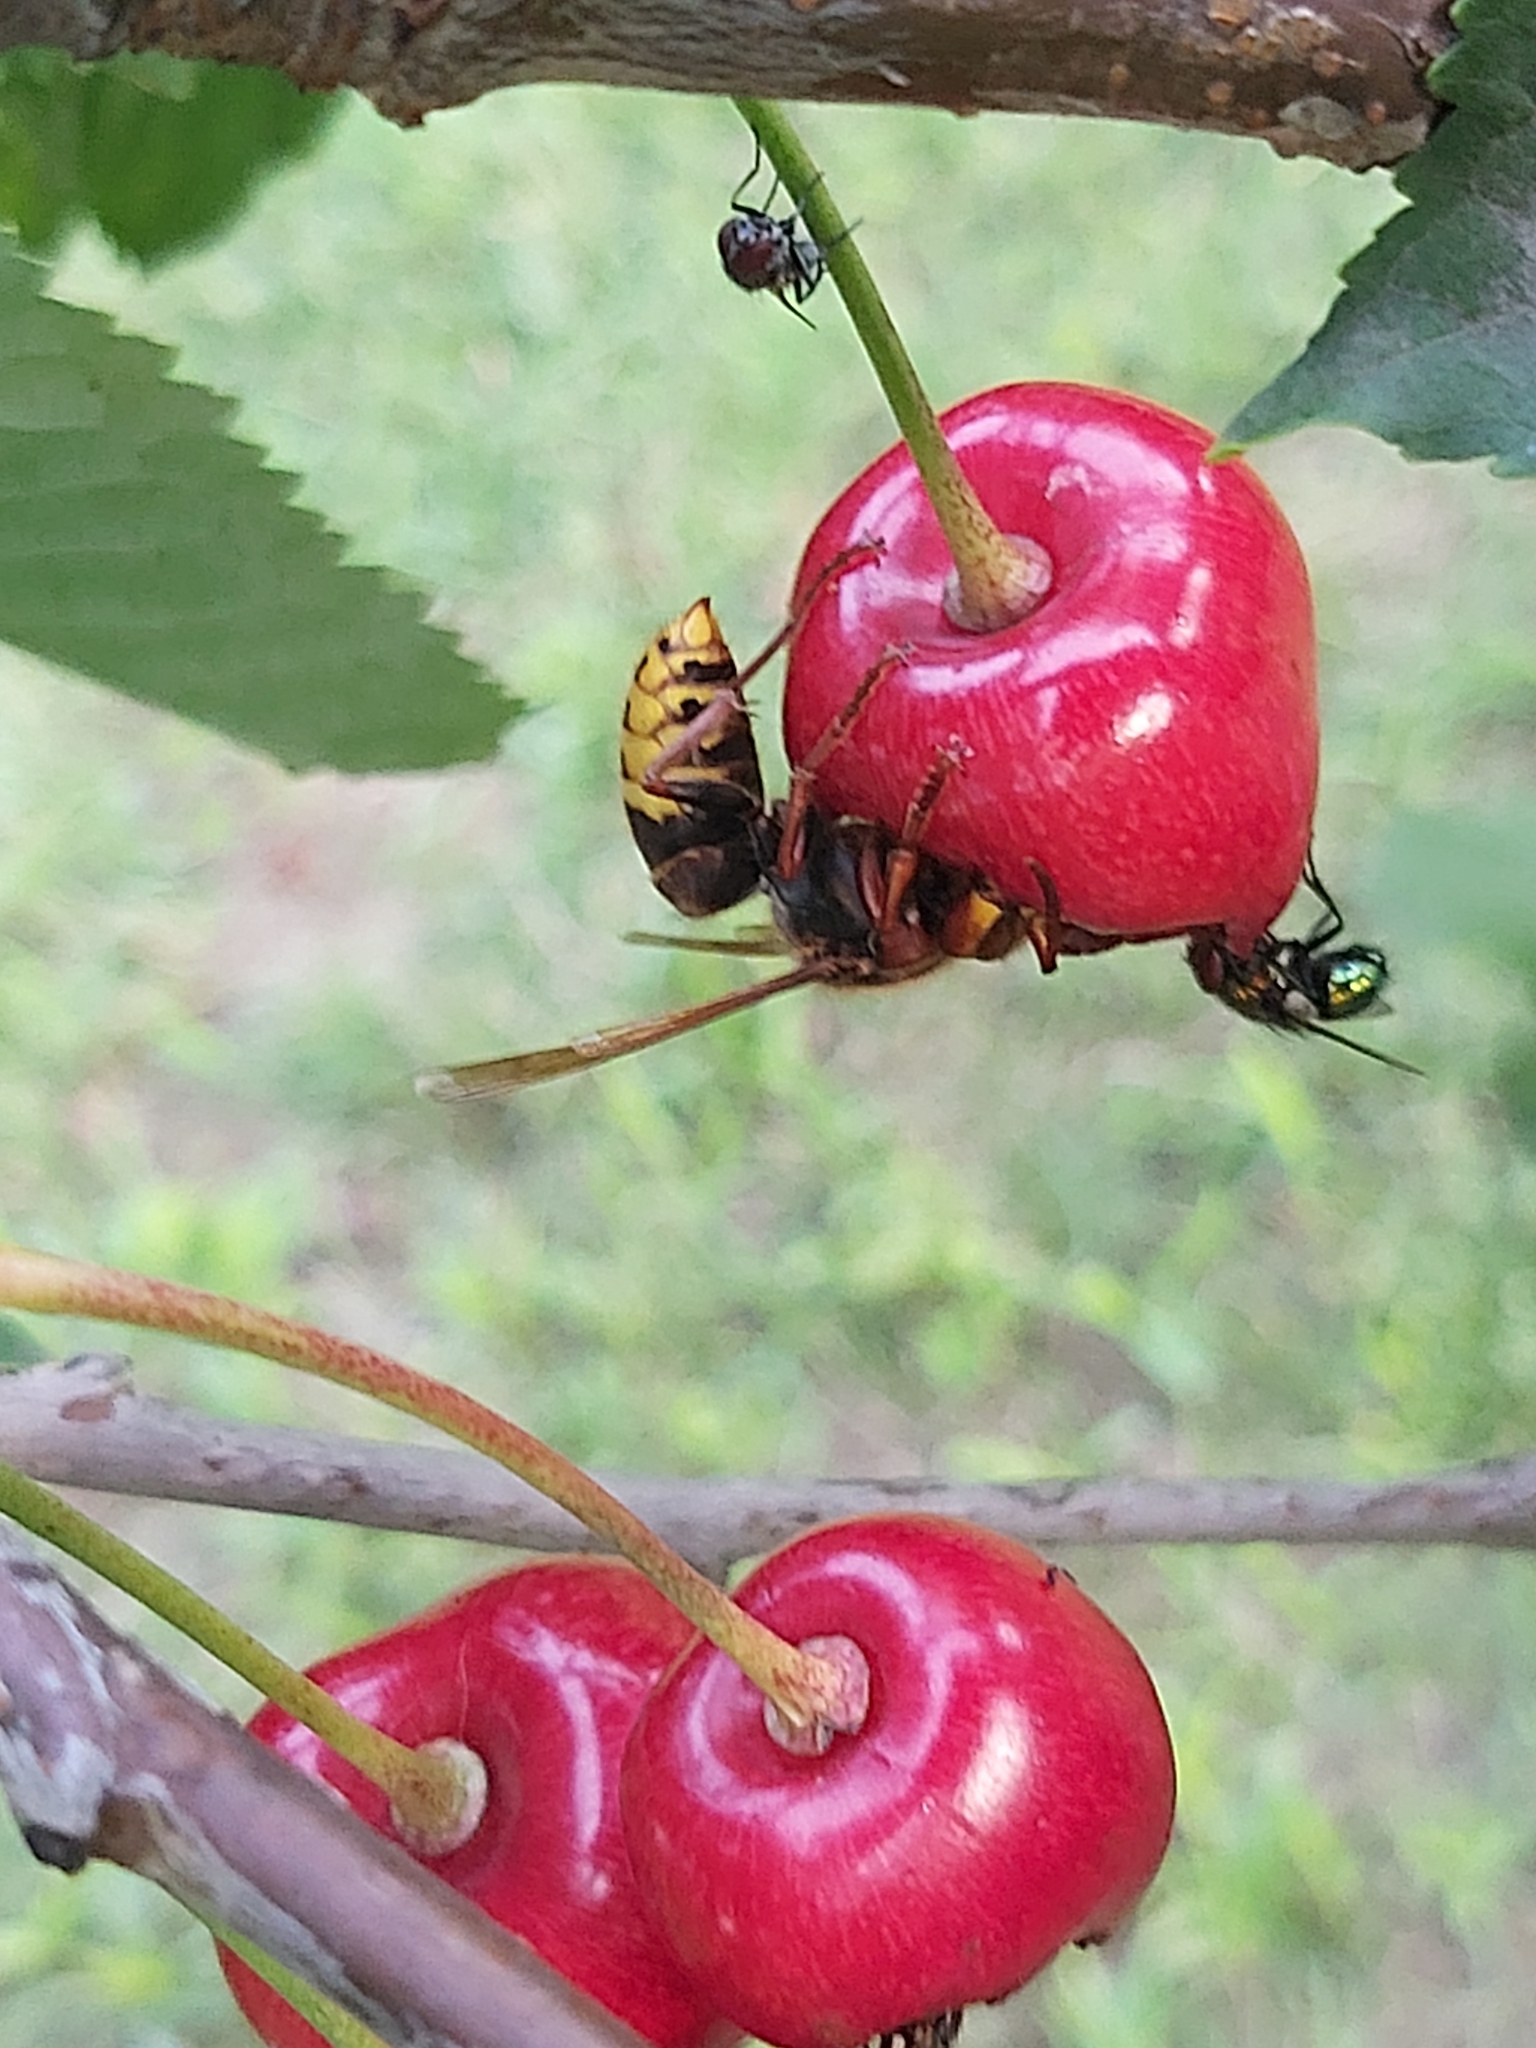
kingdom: Animalia
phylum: Arthropoda
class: Insecta
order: Hymenoptera
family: Vespidae
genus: Vespa
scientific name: Vespa crabro
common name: Hornet
